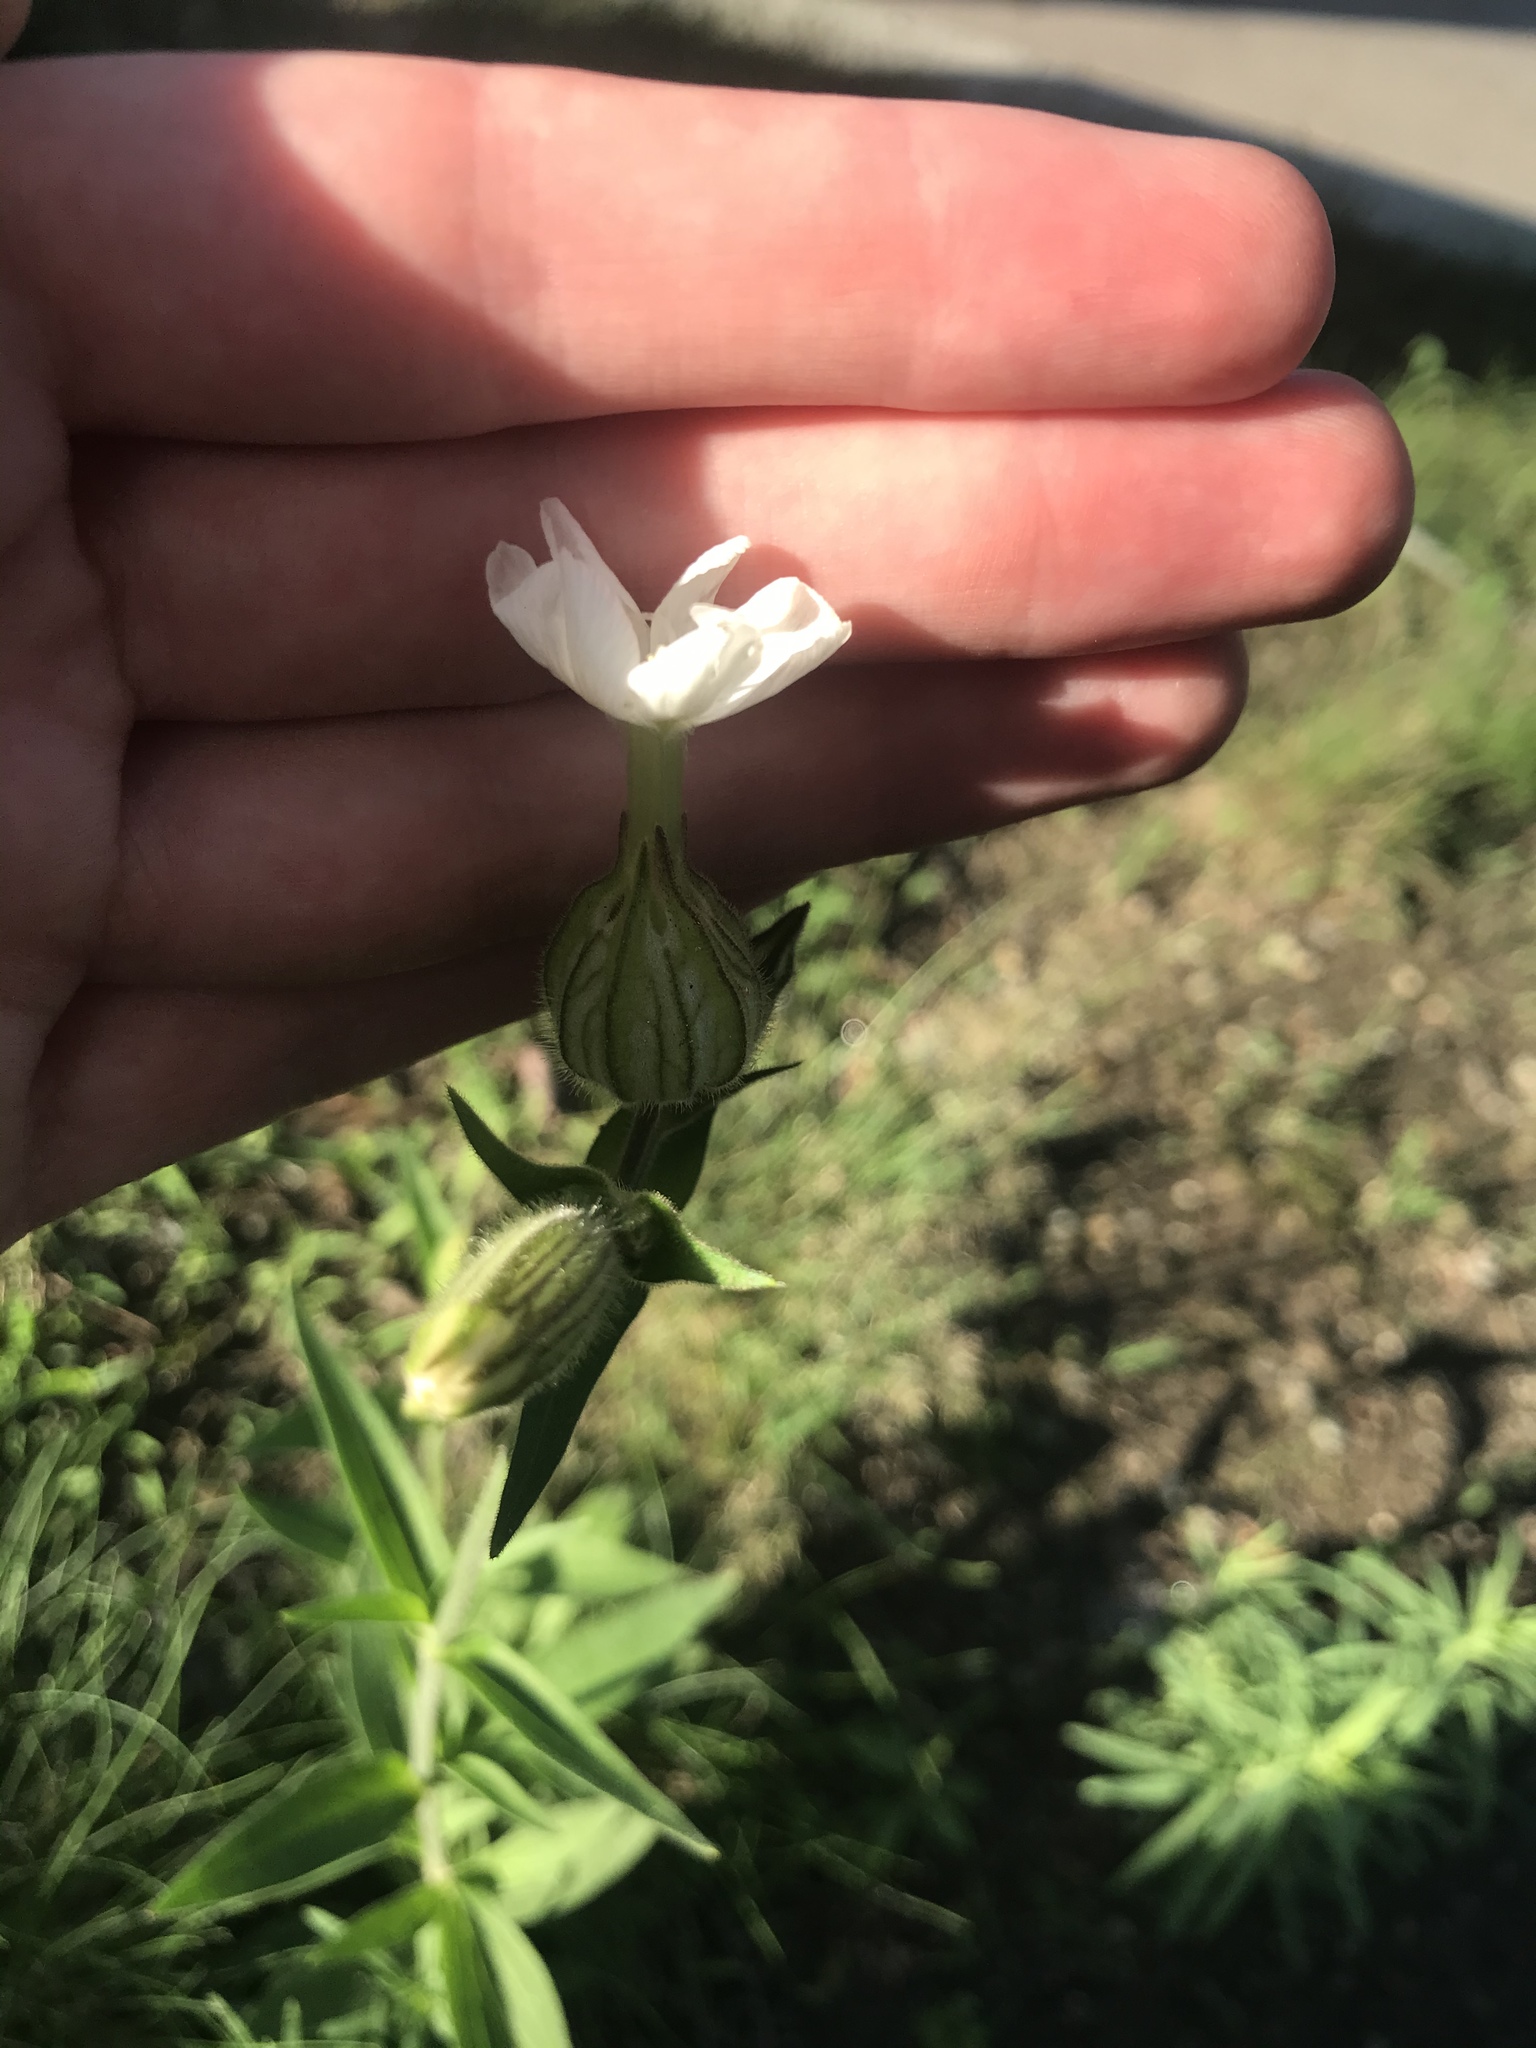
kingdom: Plantae
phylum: Tracheophyta
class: Magnoliopsida
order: Caryophyllales
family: Caryophyllaceae
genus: Silene
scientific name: Silene latifolia
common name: White campion
